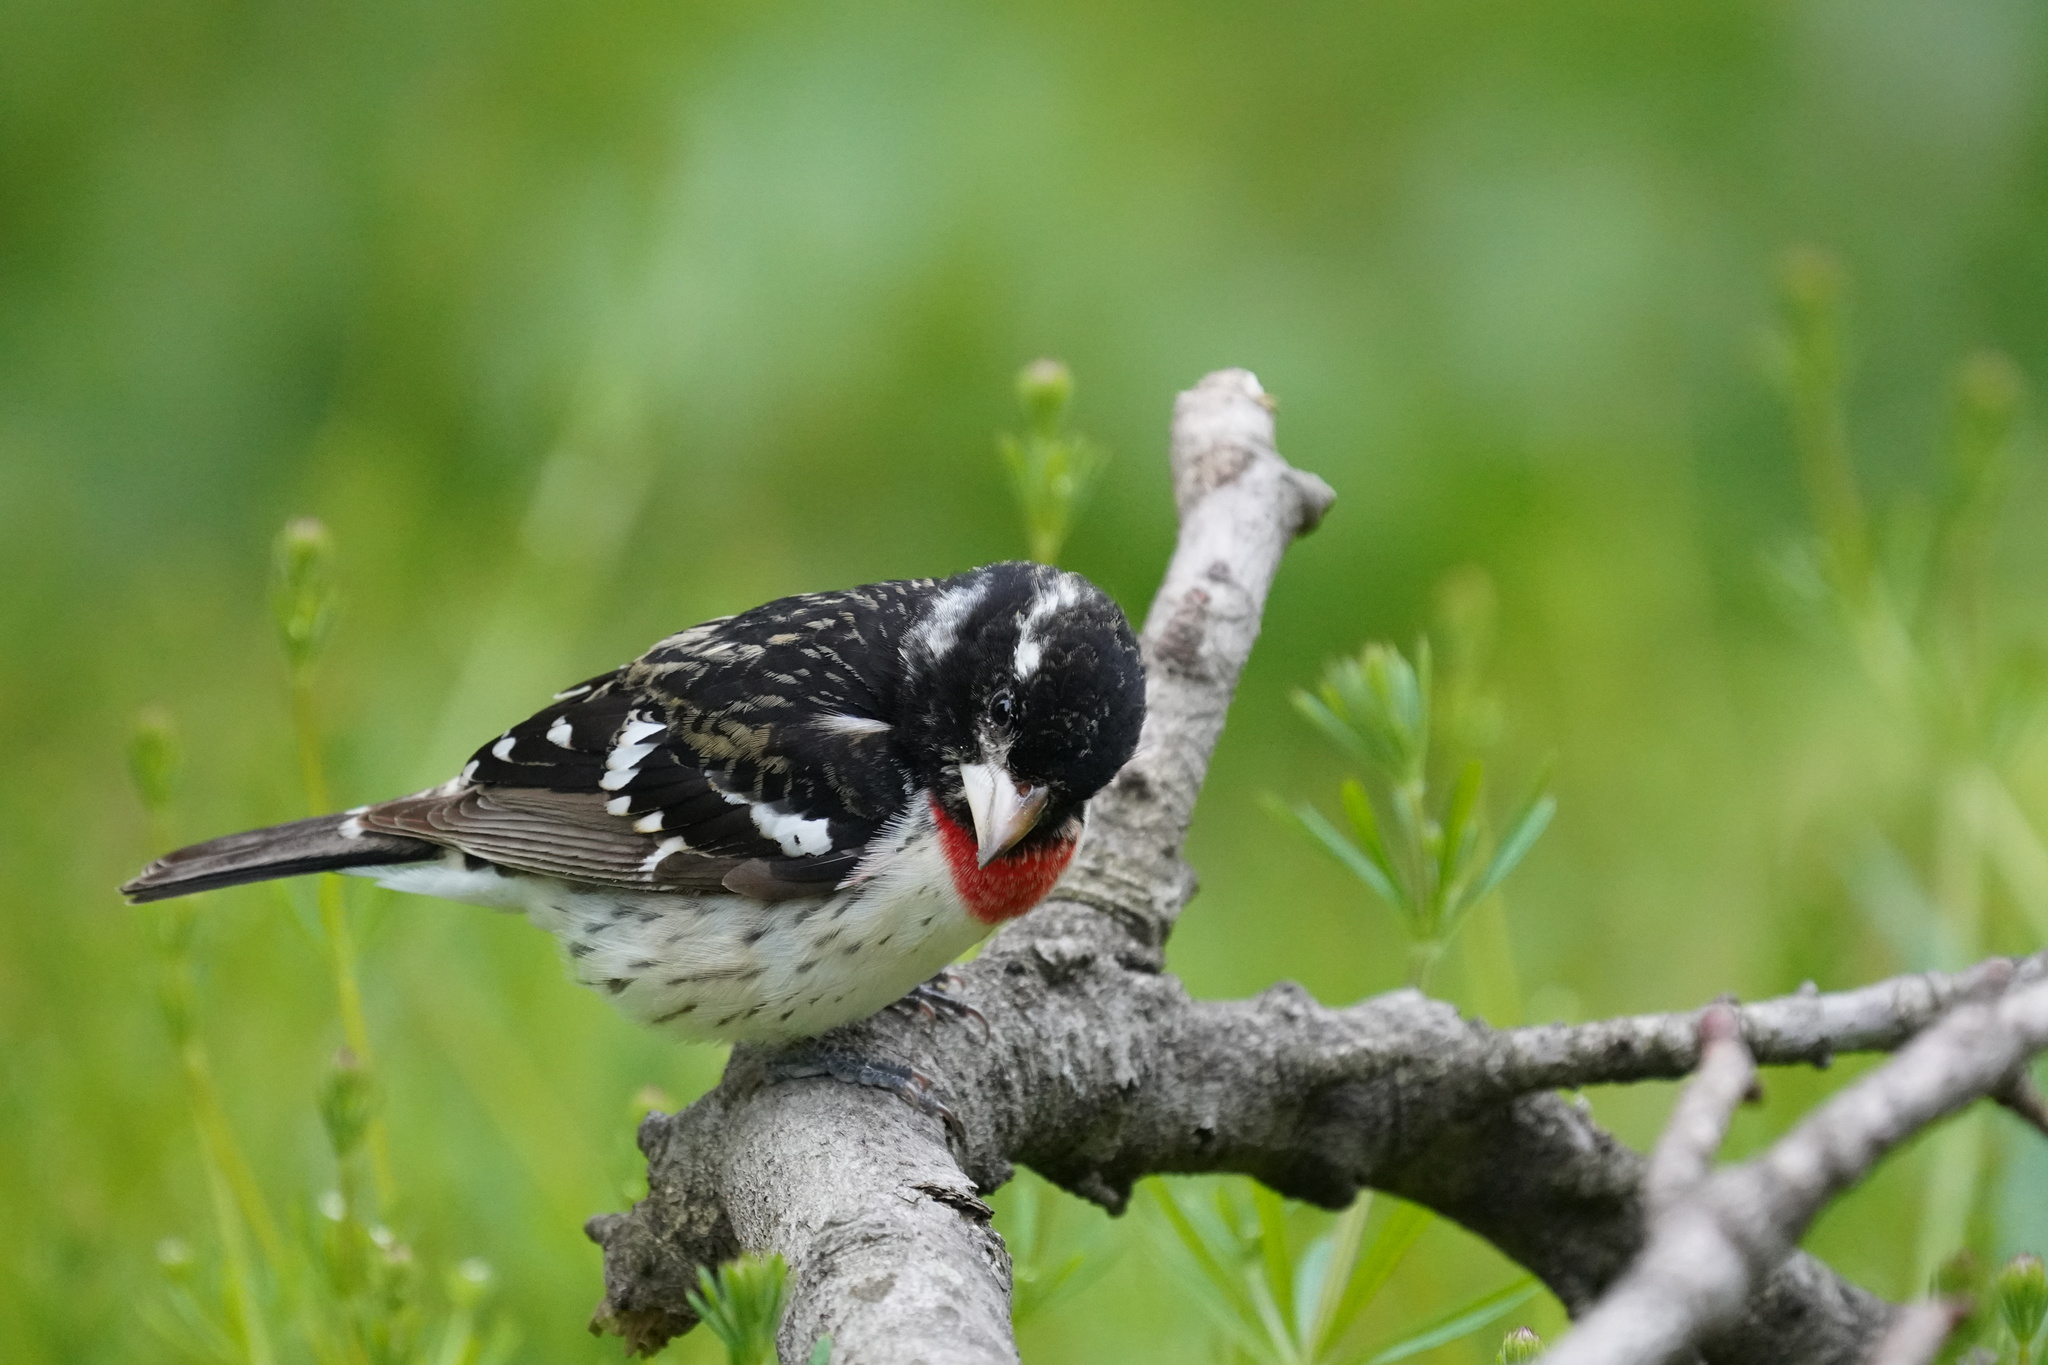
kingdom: Animalia
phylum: Chordata
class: Aves
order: Passeriformes
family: Cardinalidae
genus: Pheucticus
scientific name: Pheucticus ludovicianus
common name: Rose-breasted grosbeak
